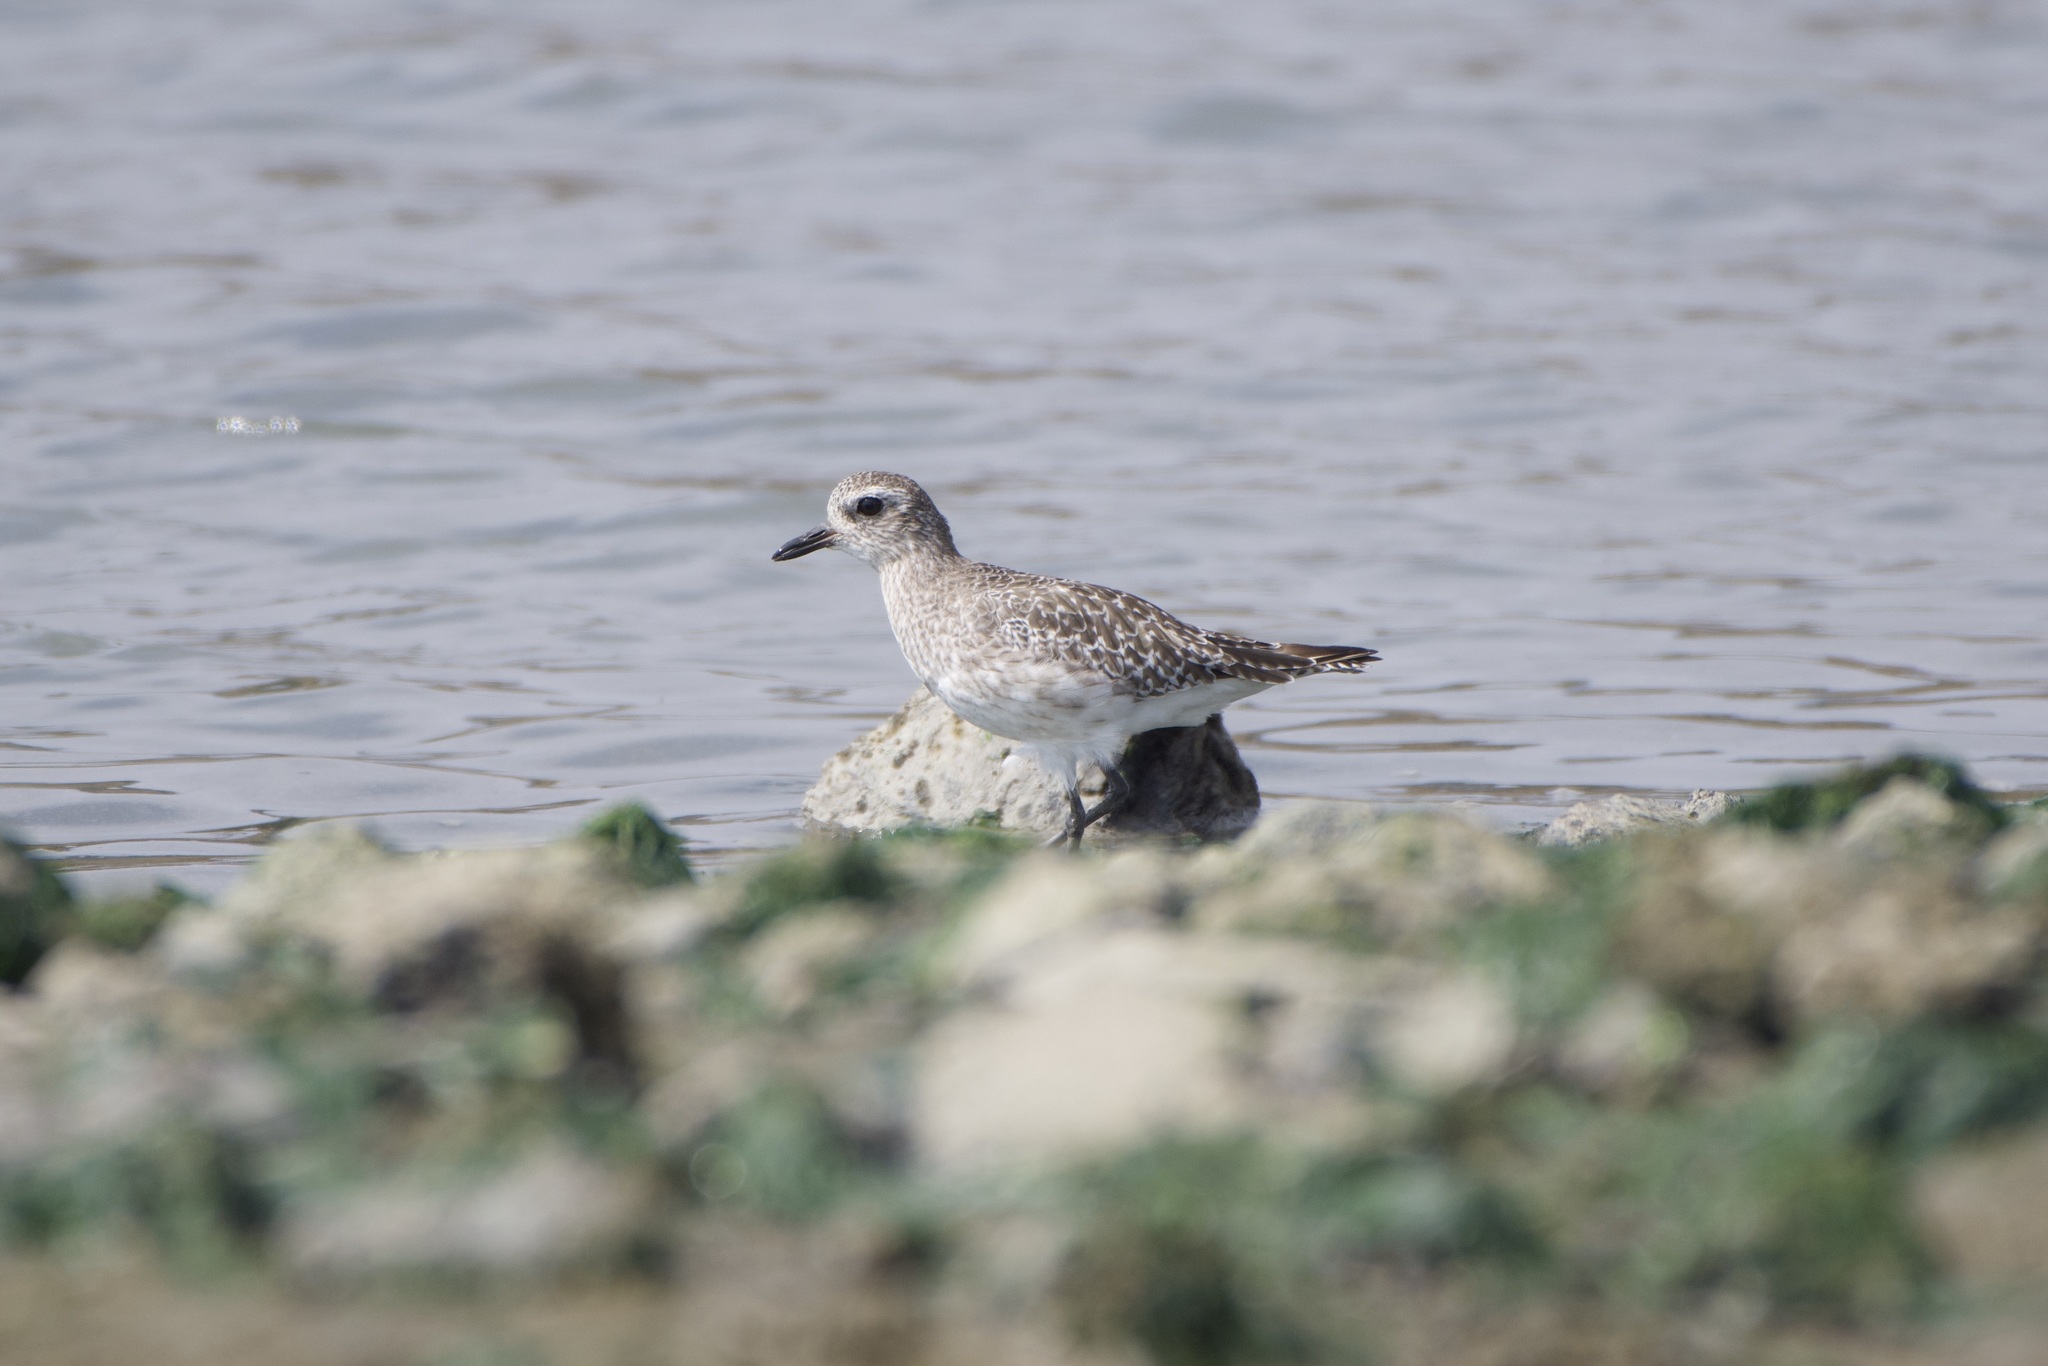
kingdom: Animalia
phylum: Chordata
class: Aves
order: Charadriiformes
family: Charadriidae
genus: Pluvialis
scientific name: Pluvialis squatarola
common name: Grey plover
